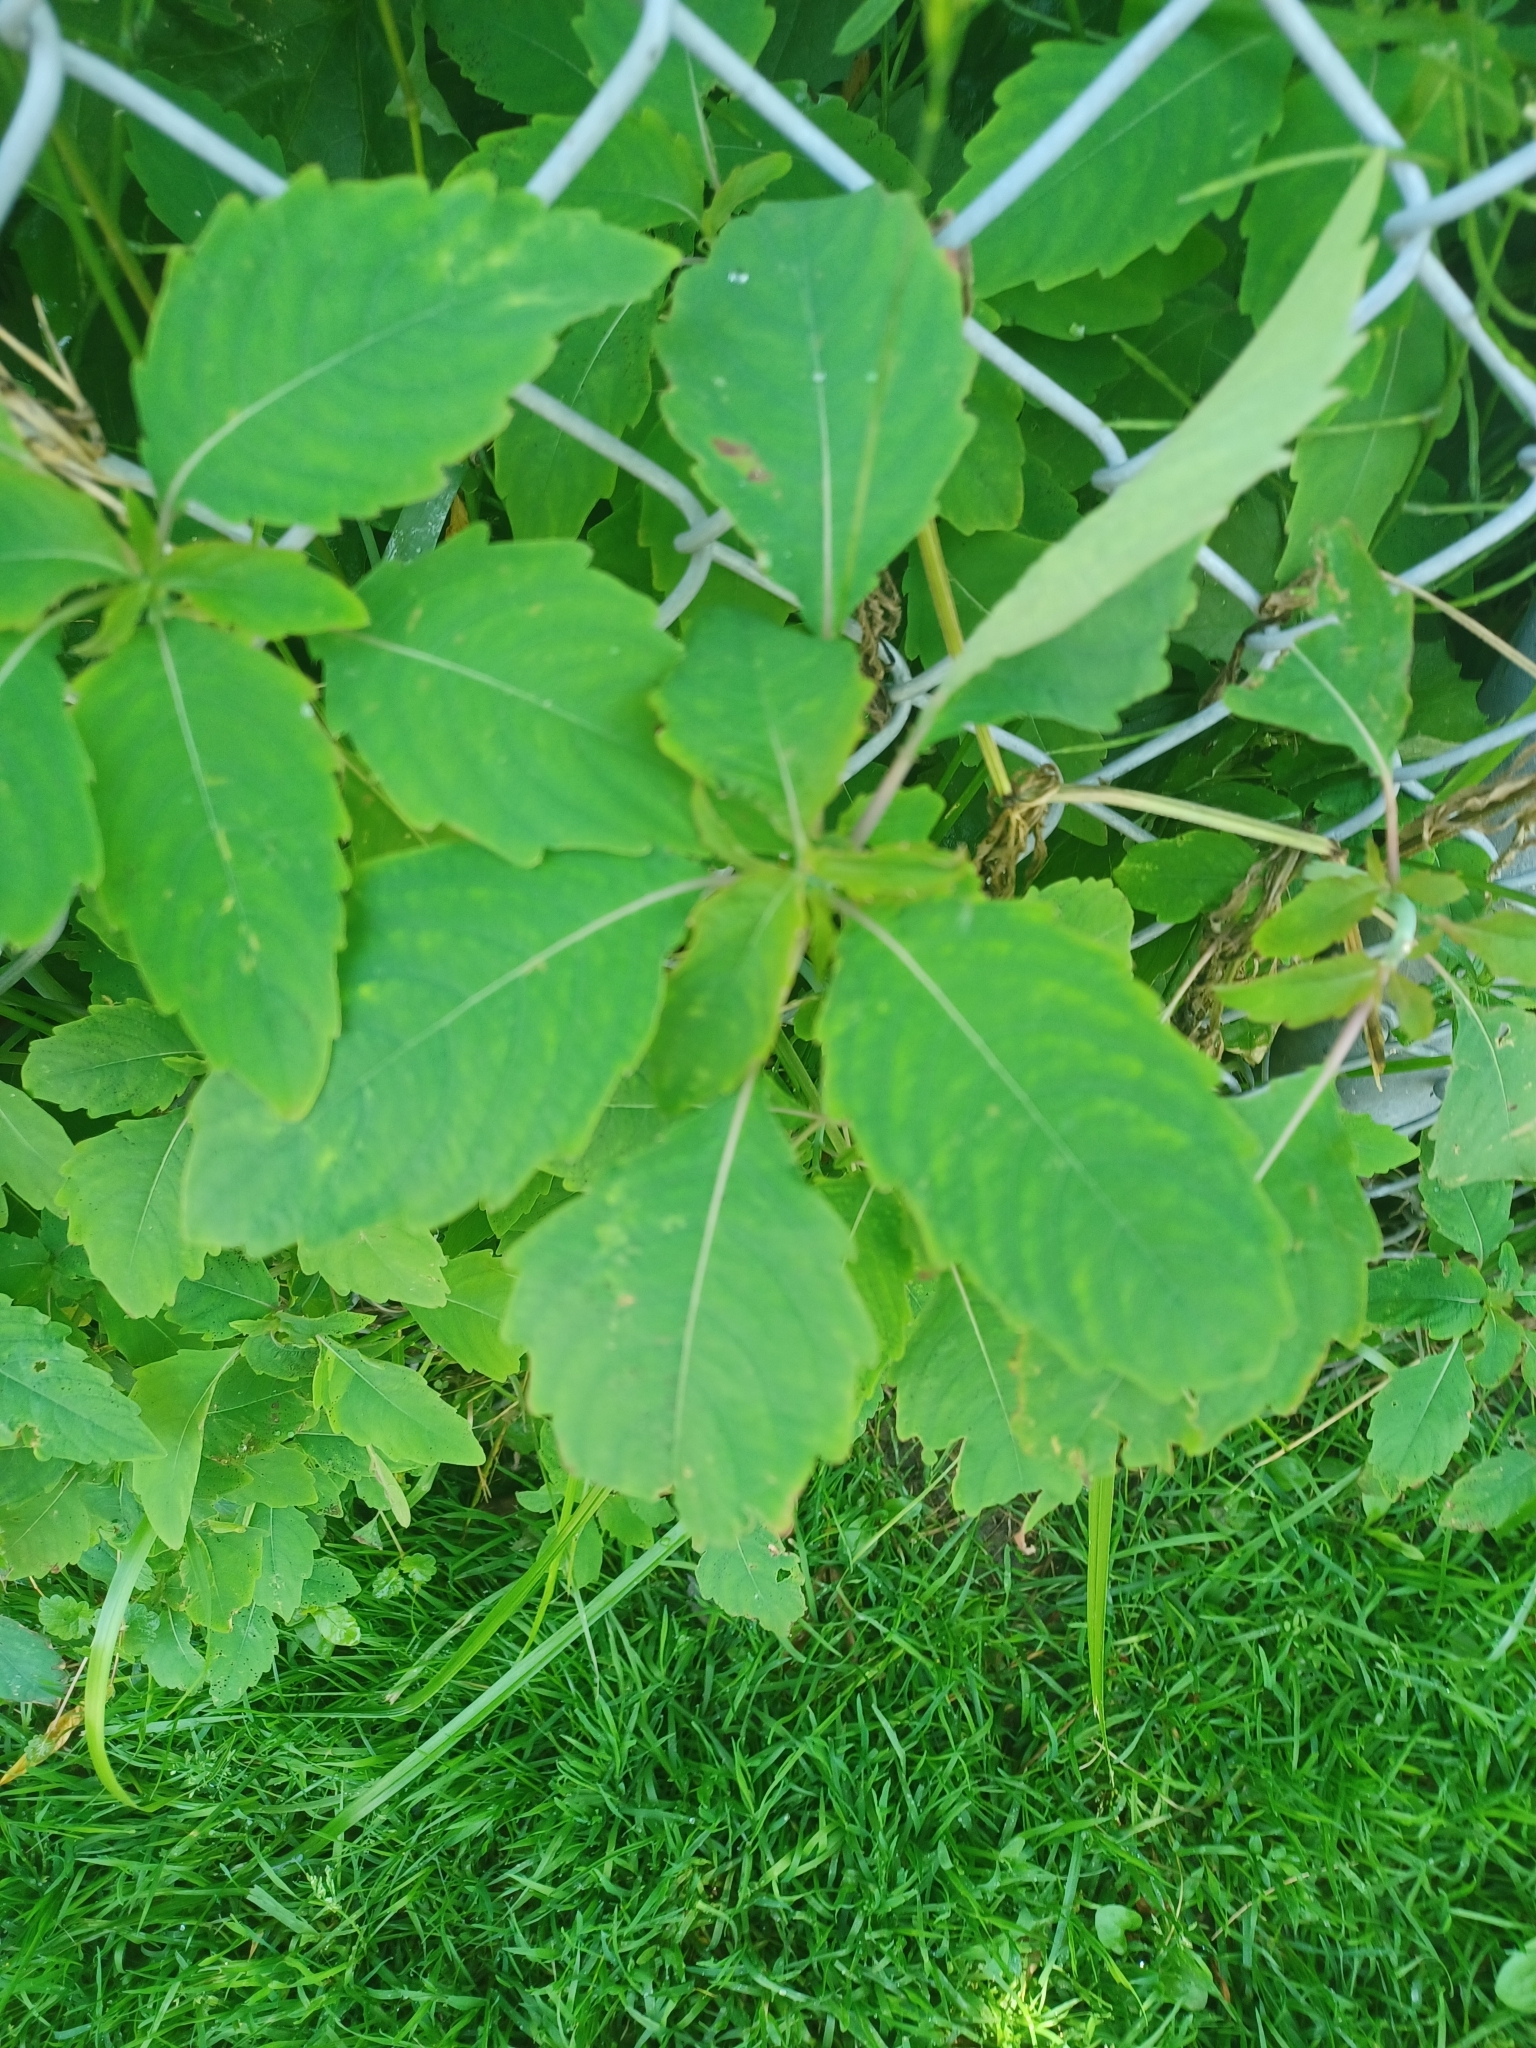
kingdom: Plantae
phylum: Tracheophyta
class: Magnoliopsida
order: Ericales
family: Balsaminaceae
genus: Impatiens
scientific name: Impatiens capensis
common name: Orange balsam
